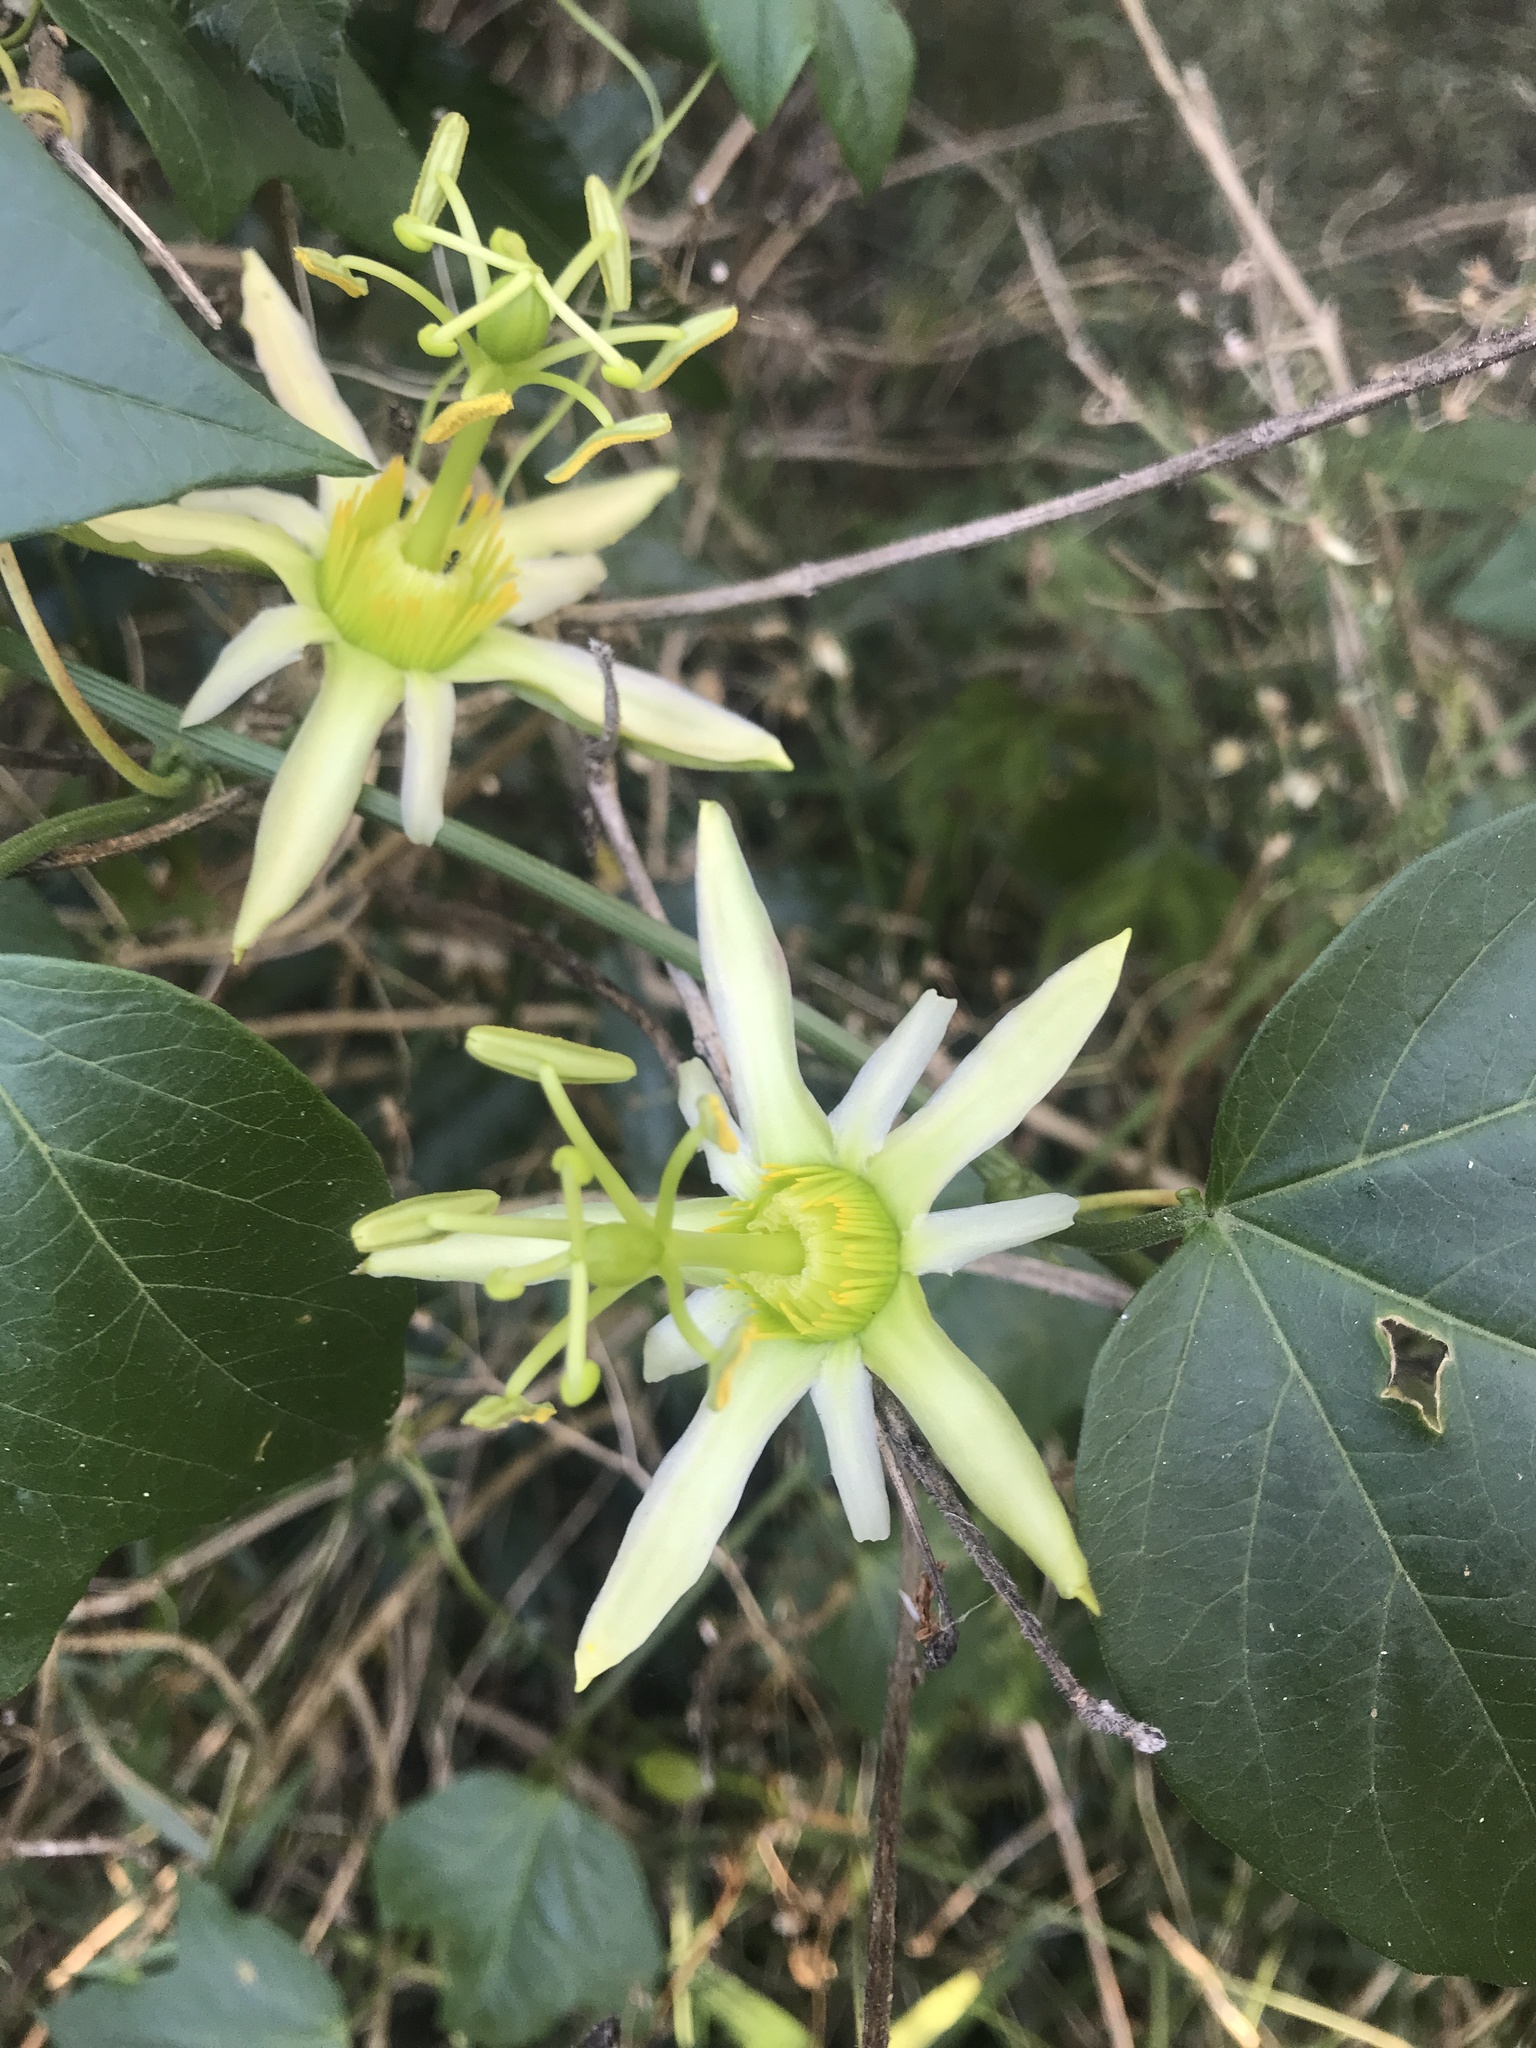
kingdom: Plantae
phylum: Tracheophyta
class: Magnoliopsida
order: Malpighiales
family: Passifloraceae
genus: Passiflora
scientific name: Passiflora herbertiana
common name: Yellow passionflower
